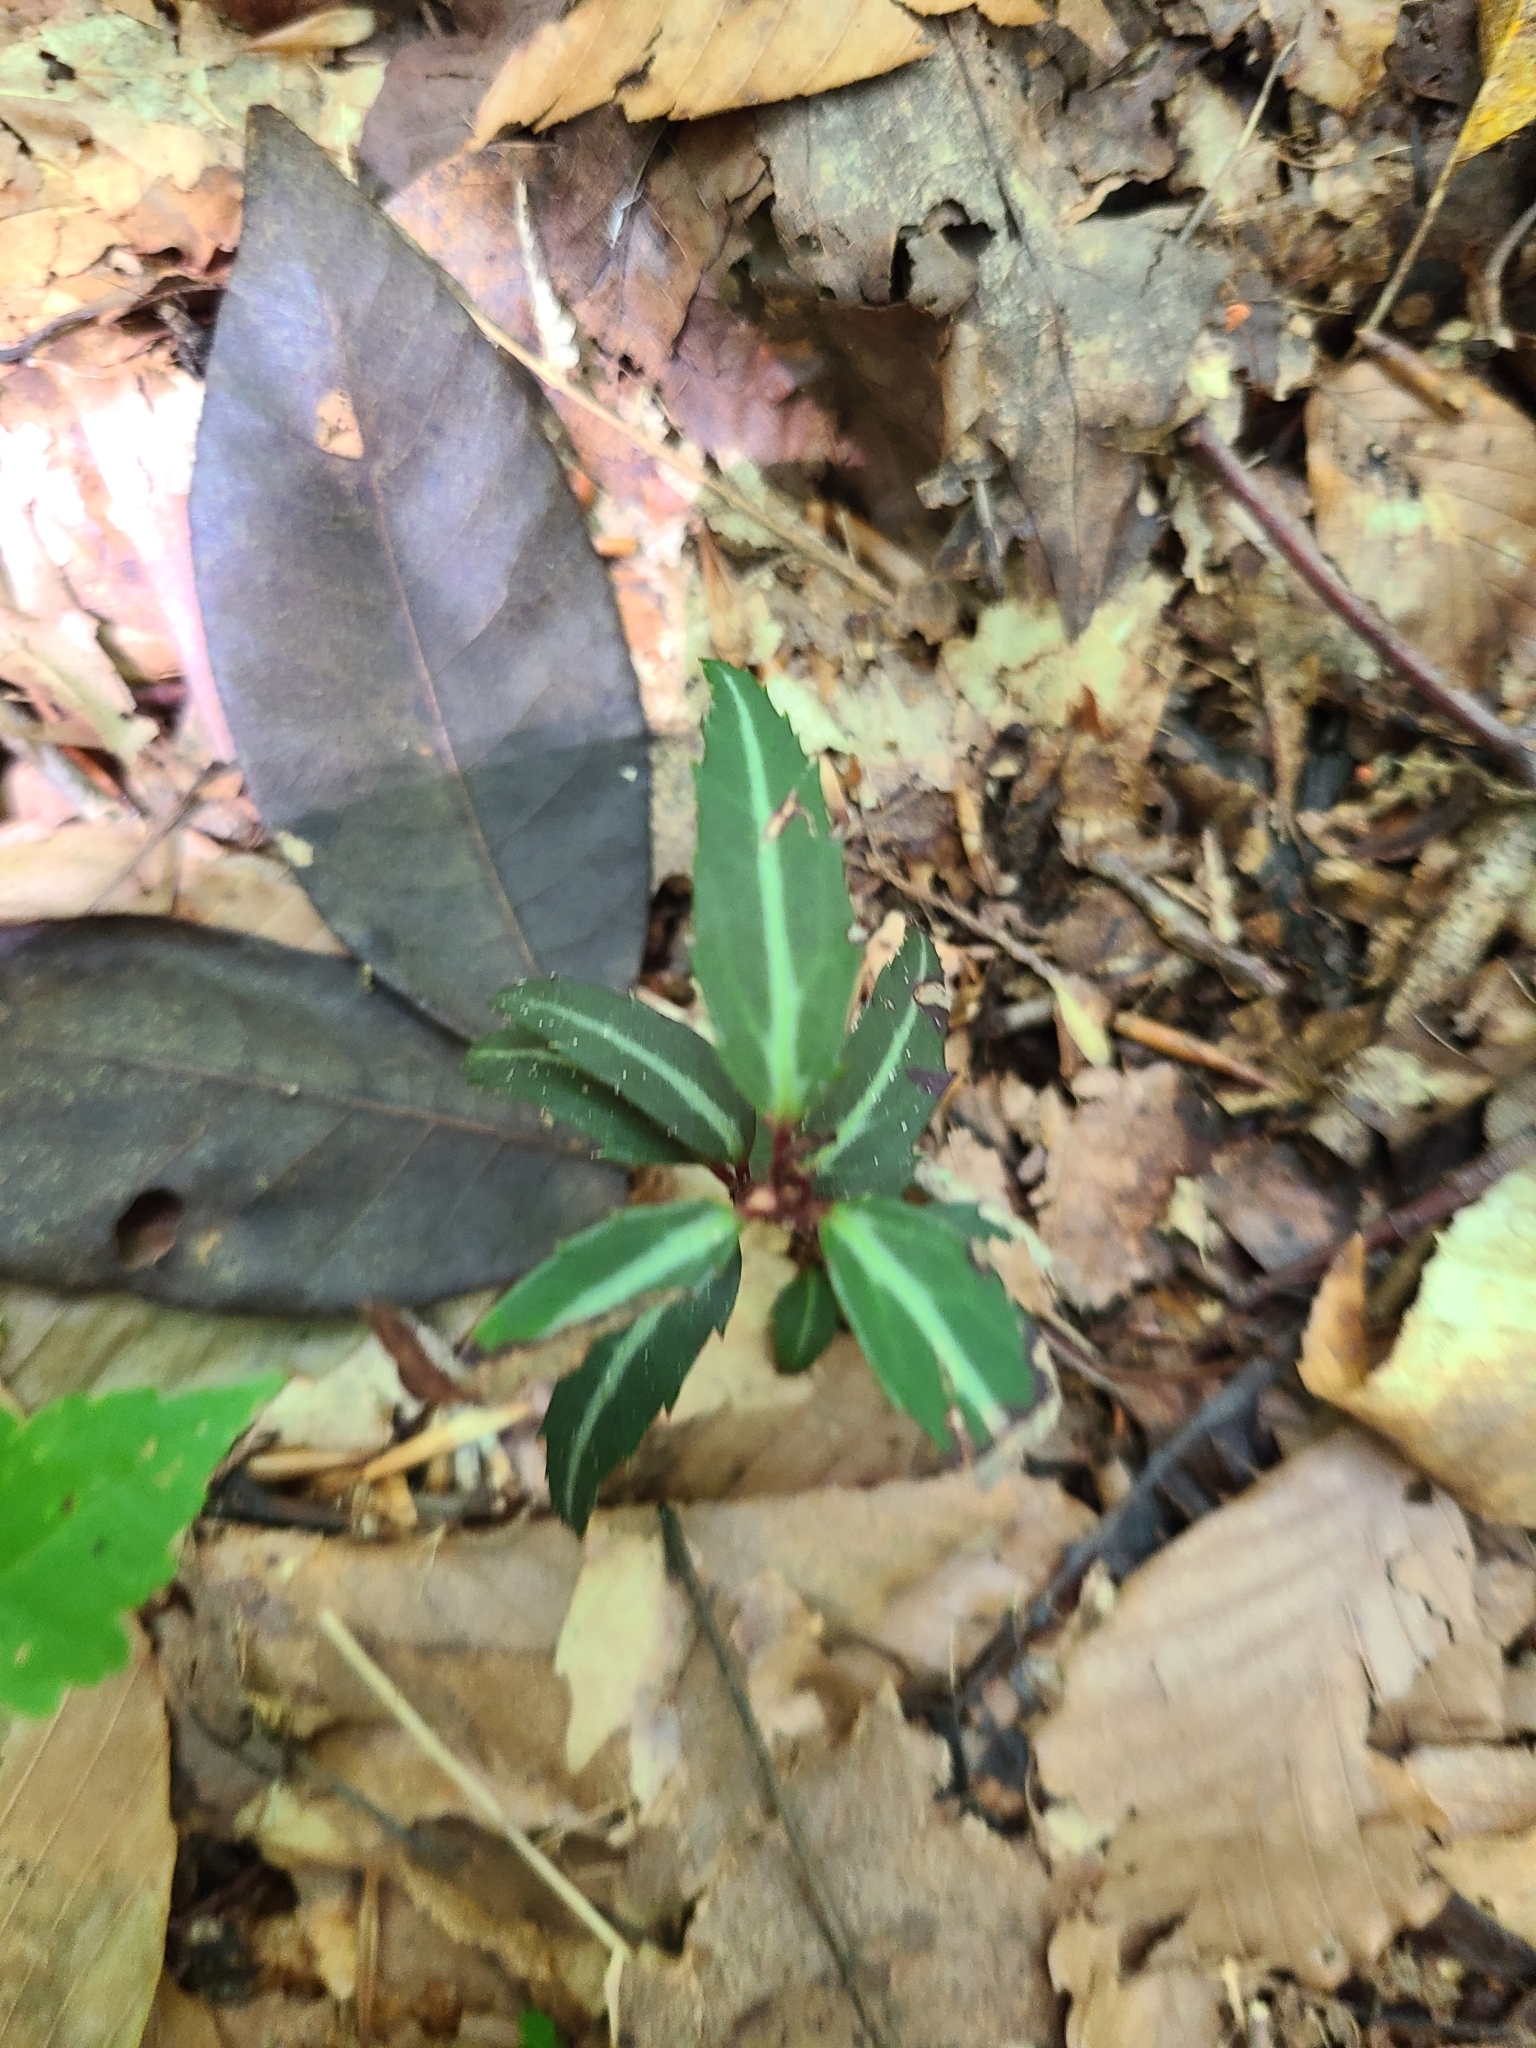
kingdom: Plantae
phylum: Tracheophyta
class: Magnoliopsida
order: Ericales
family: Ericaceae
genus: Chimaphila
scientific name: Chimaphila maculata
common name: Spotted pipsissewa
